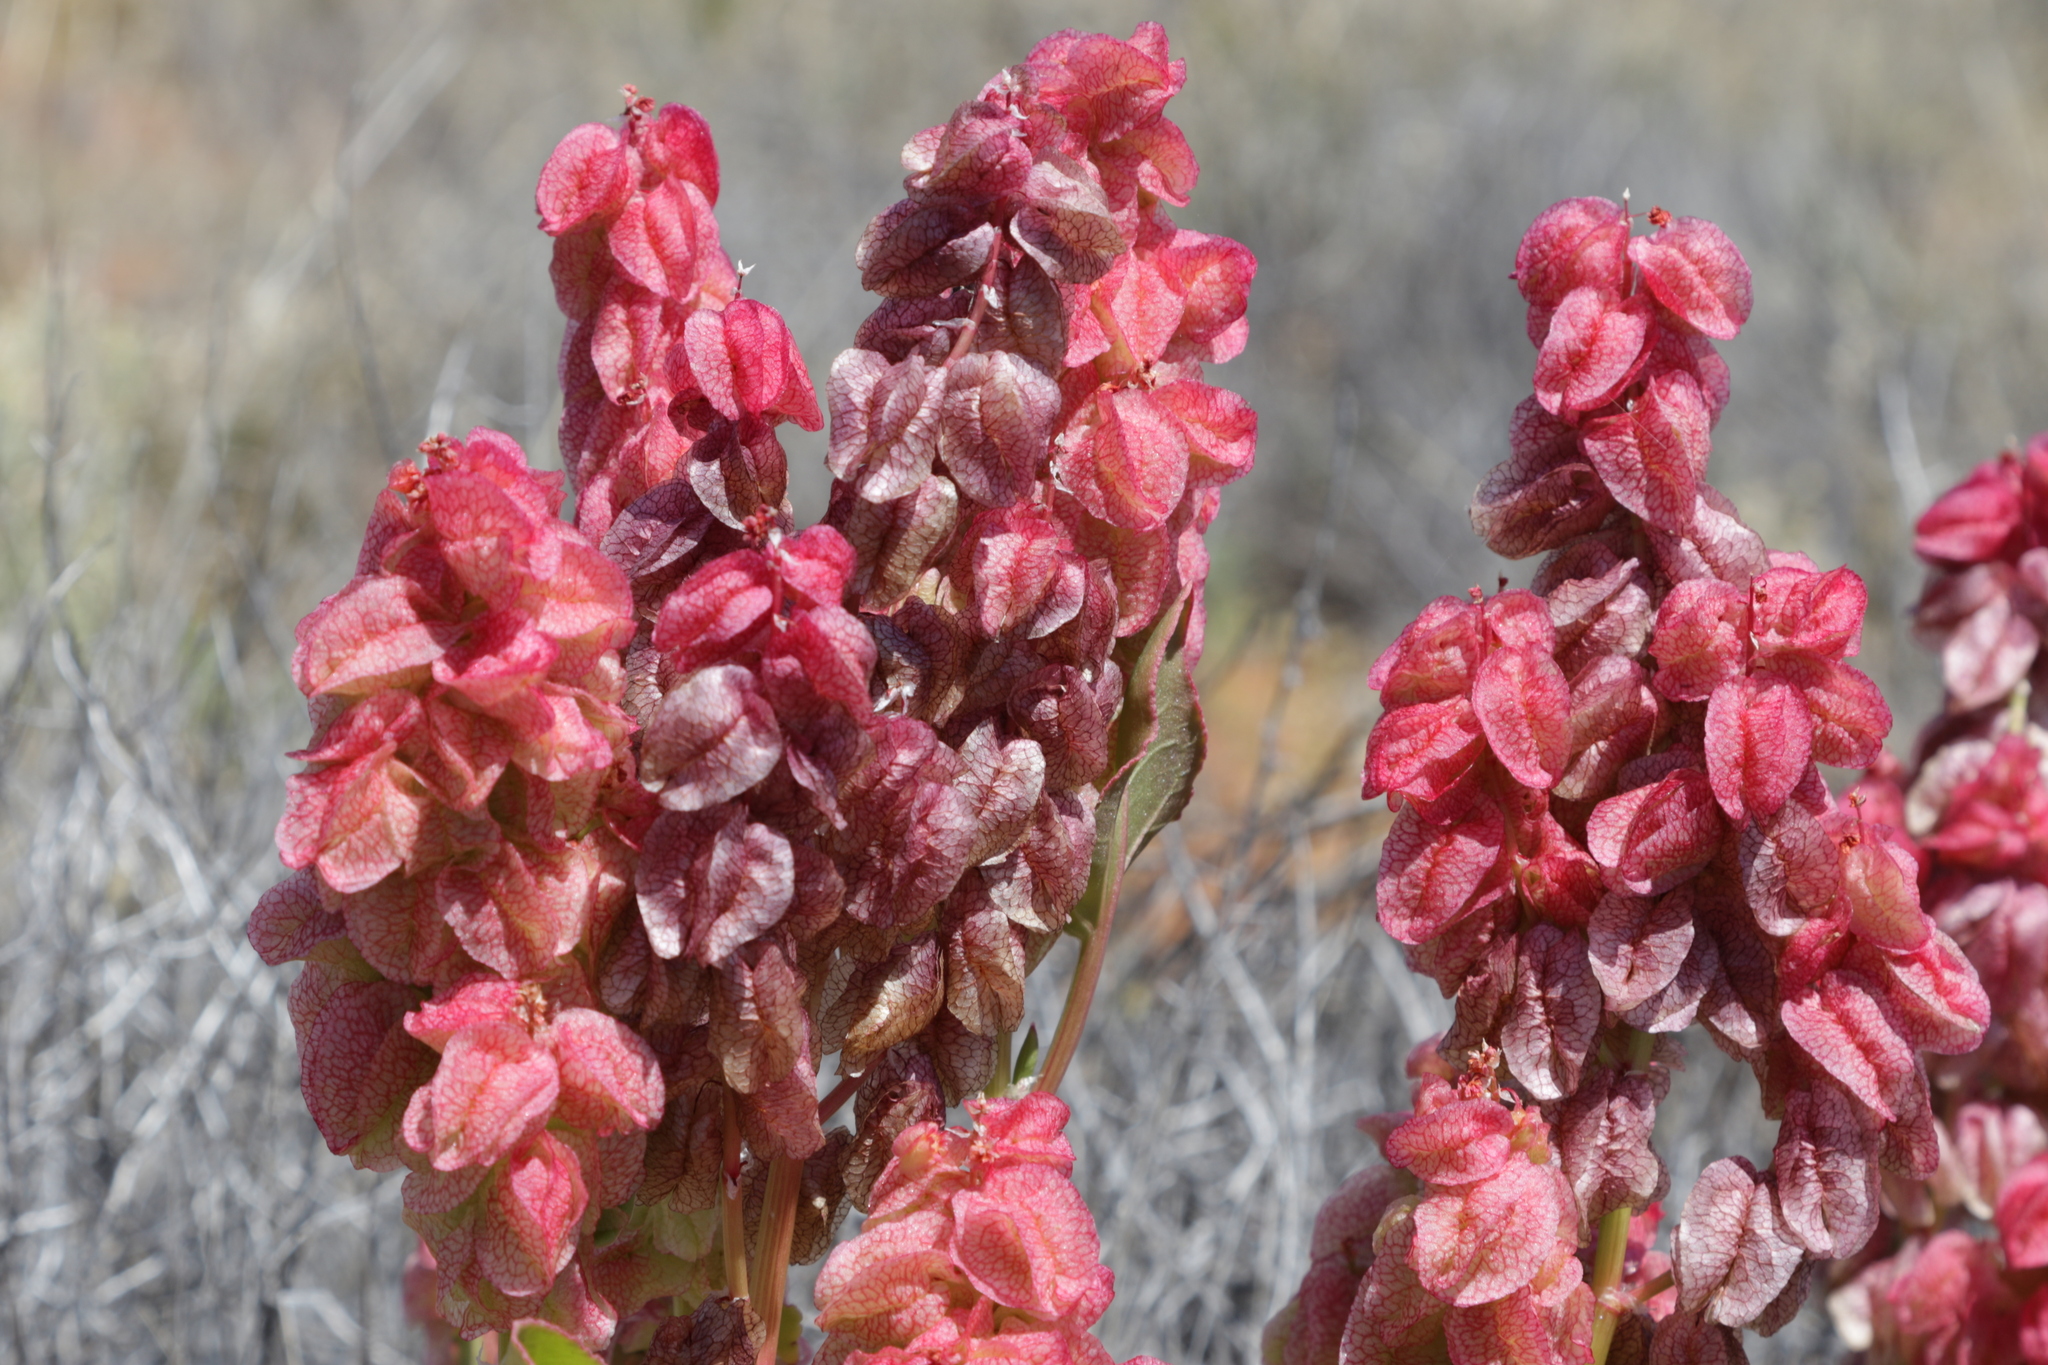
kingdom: Plantae
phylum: Tracheophyta
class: Magnoliopsida
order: Caryophyllales
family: Polygonaceae
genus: Rumex
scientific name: Rumex vesicarius
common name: Bladder dock
